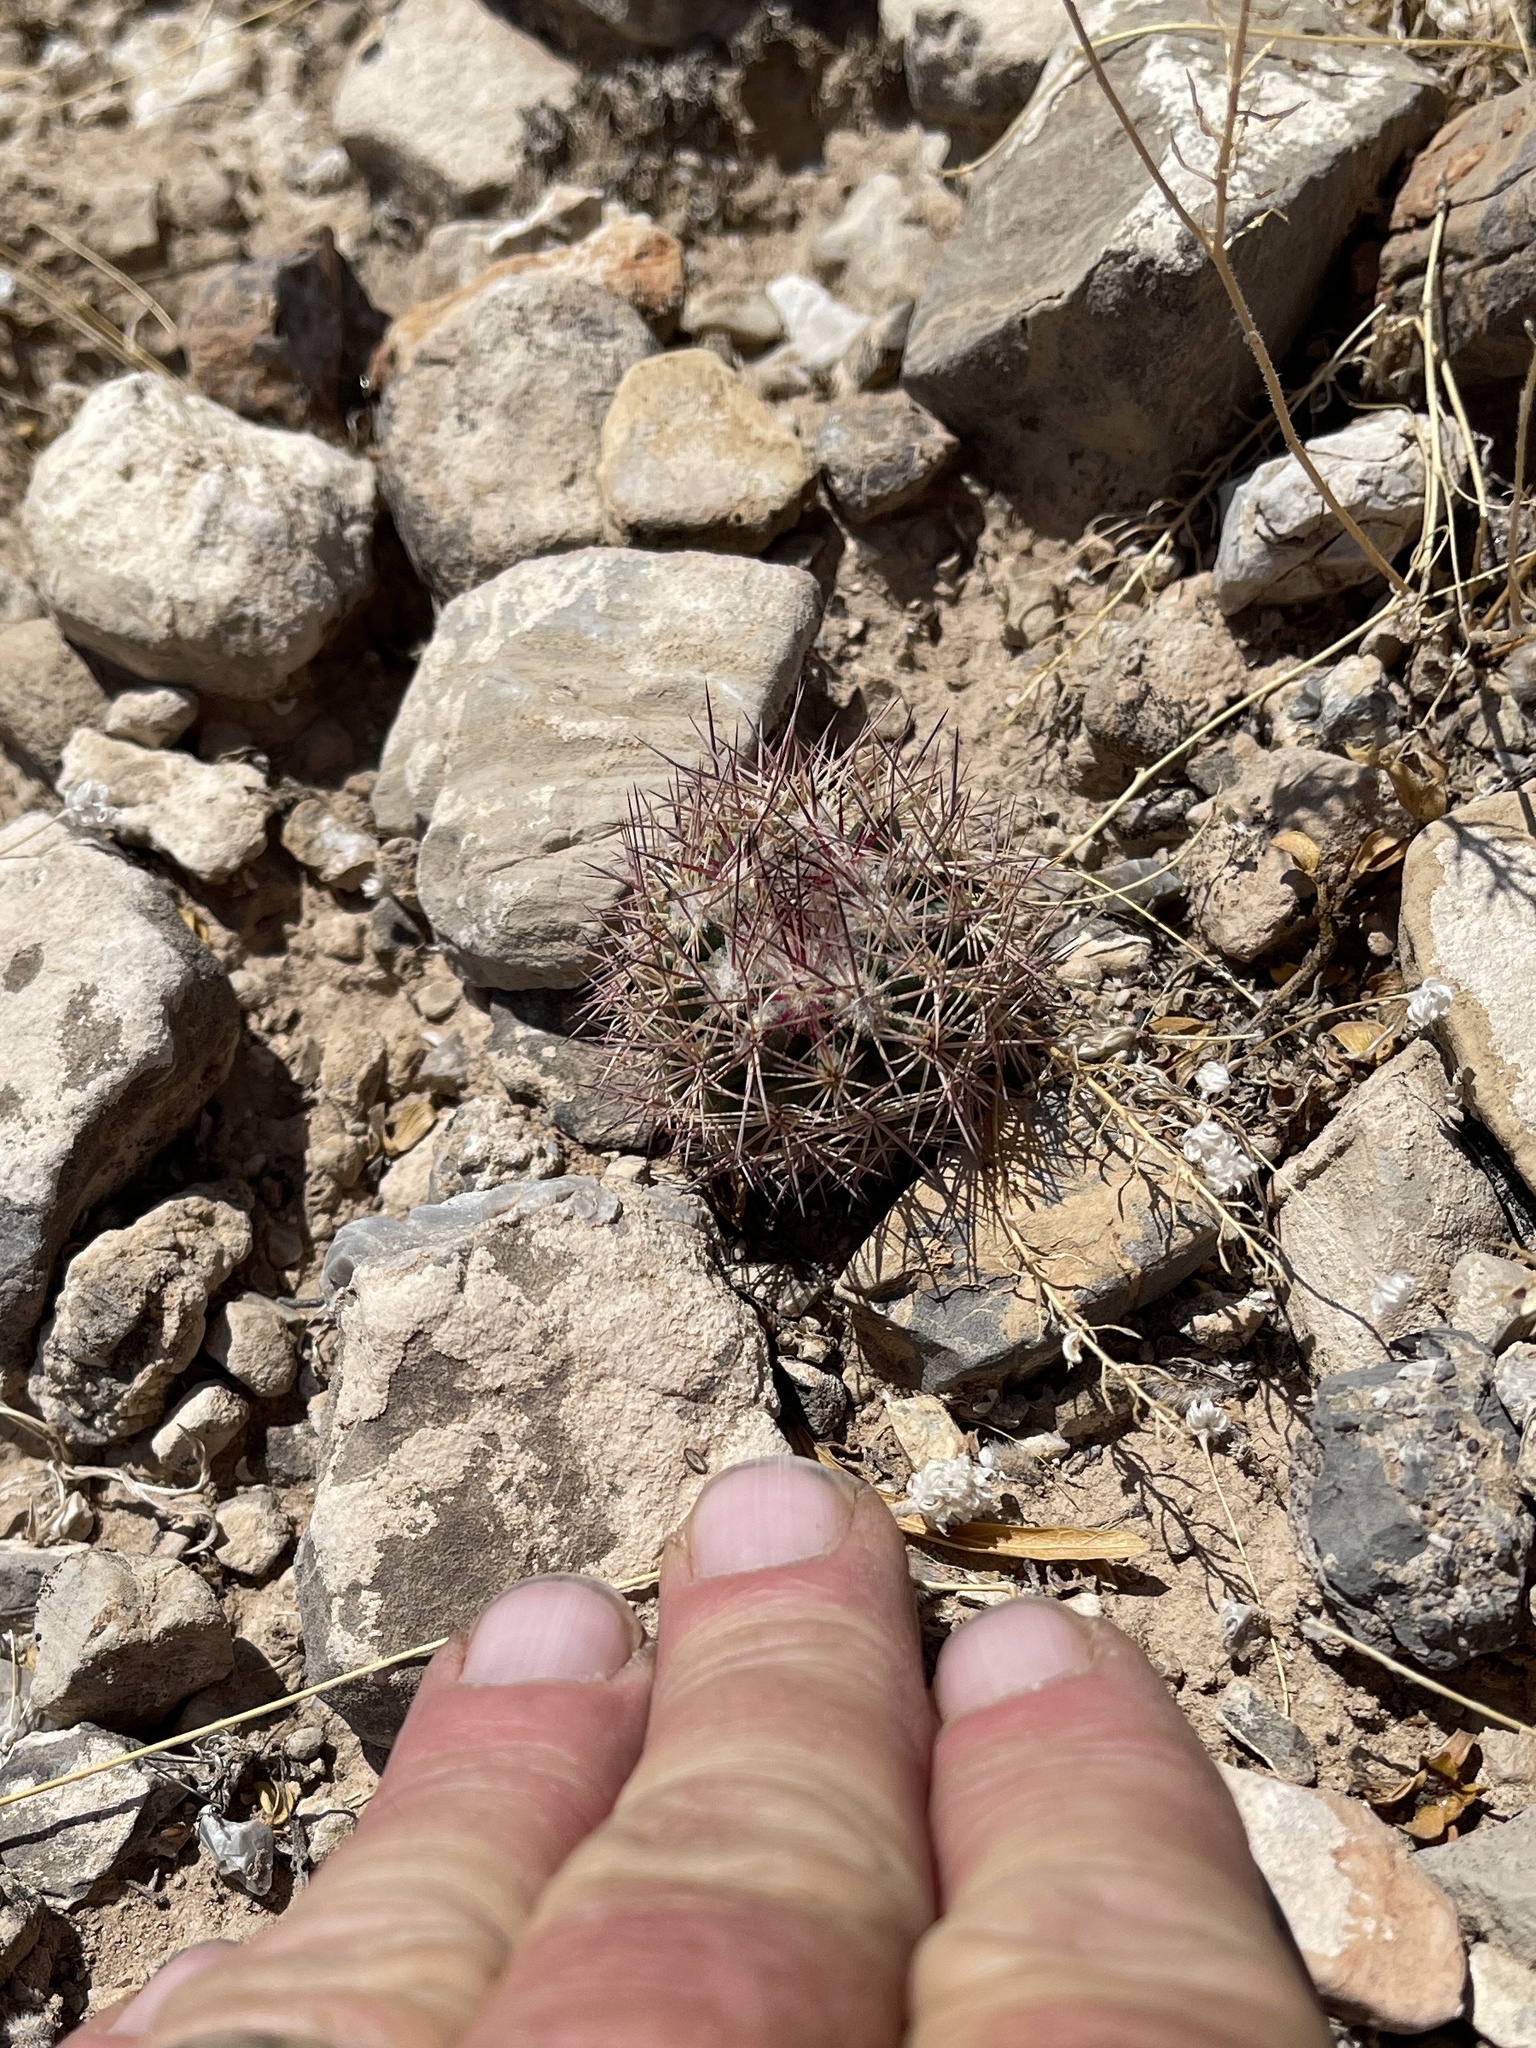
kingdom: Plantae
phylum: Tracheophyta
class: Magnoliopsida
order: Caryophyllales
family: Cactaceae
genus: Sclerocactus
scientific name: Sclerocactus intertextus
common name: White fish-hook cactus
